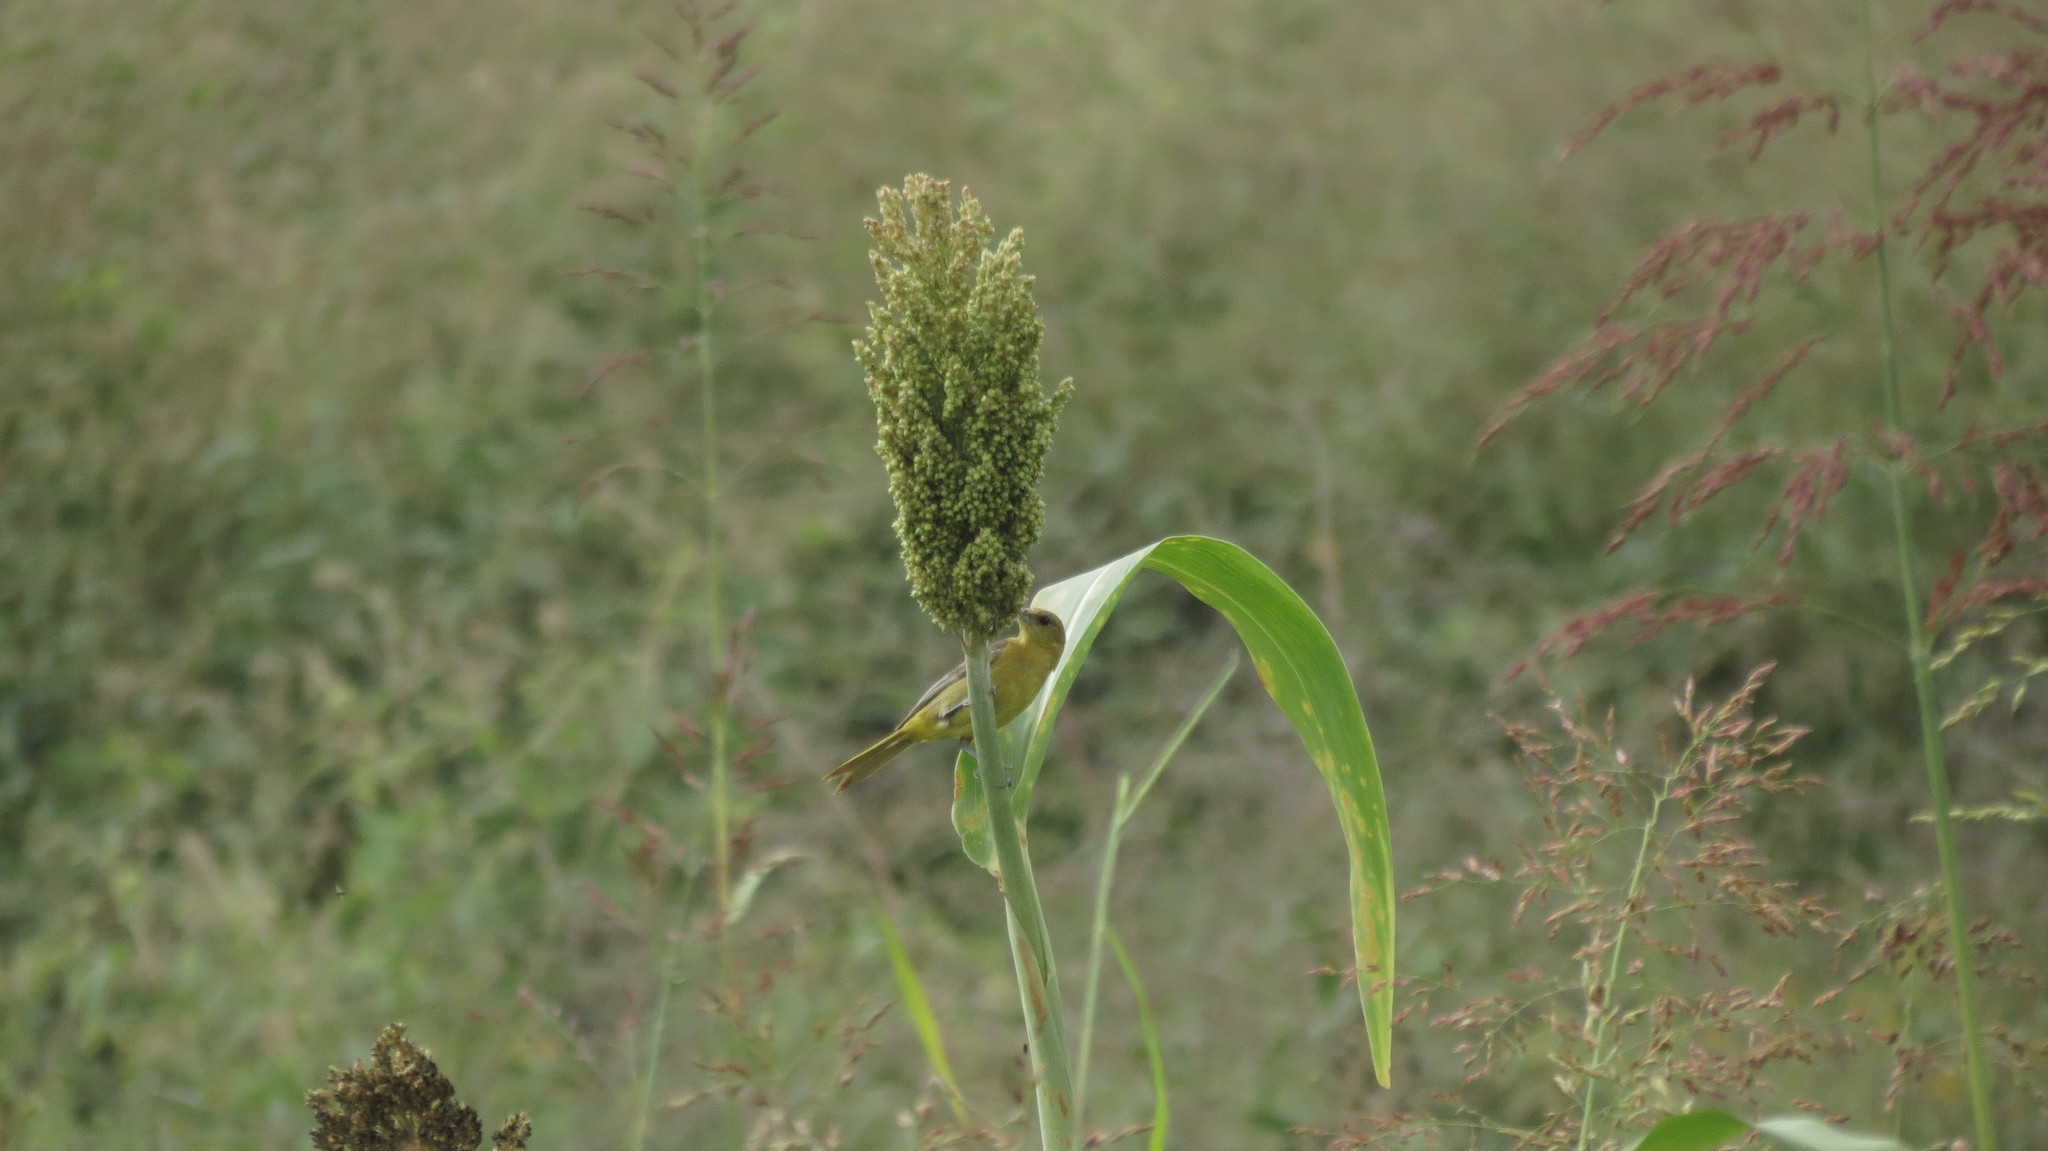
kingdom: Animalia
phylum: Chordata
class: Aves
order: Passeriformes
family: Icteridae
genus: Icterus
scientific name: Icterus spurius
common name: Orchard oriole
